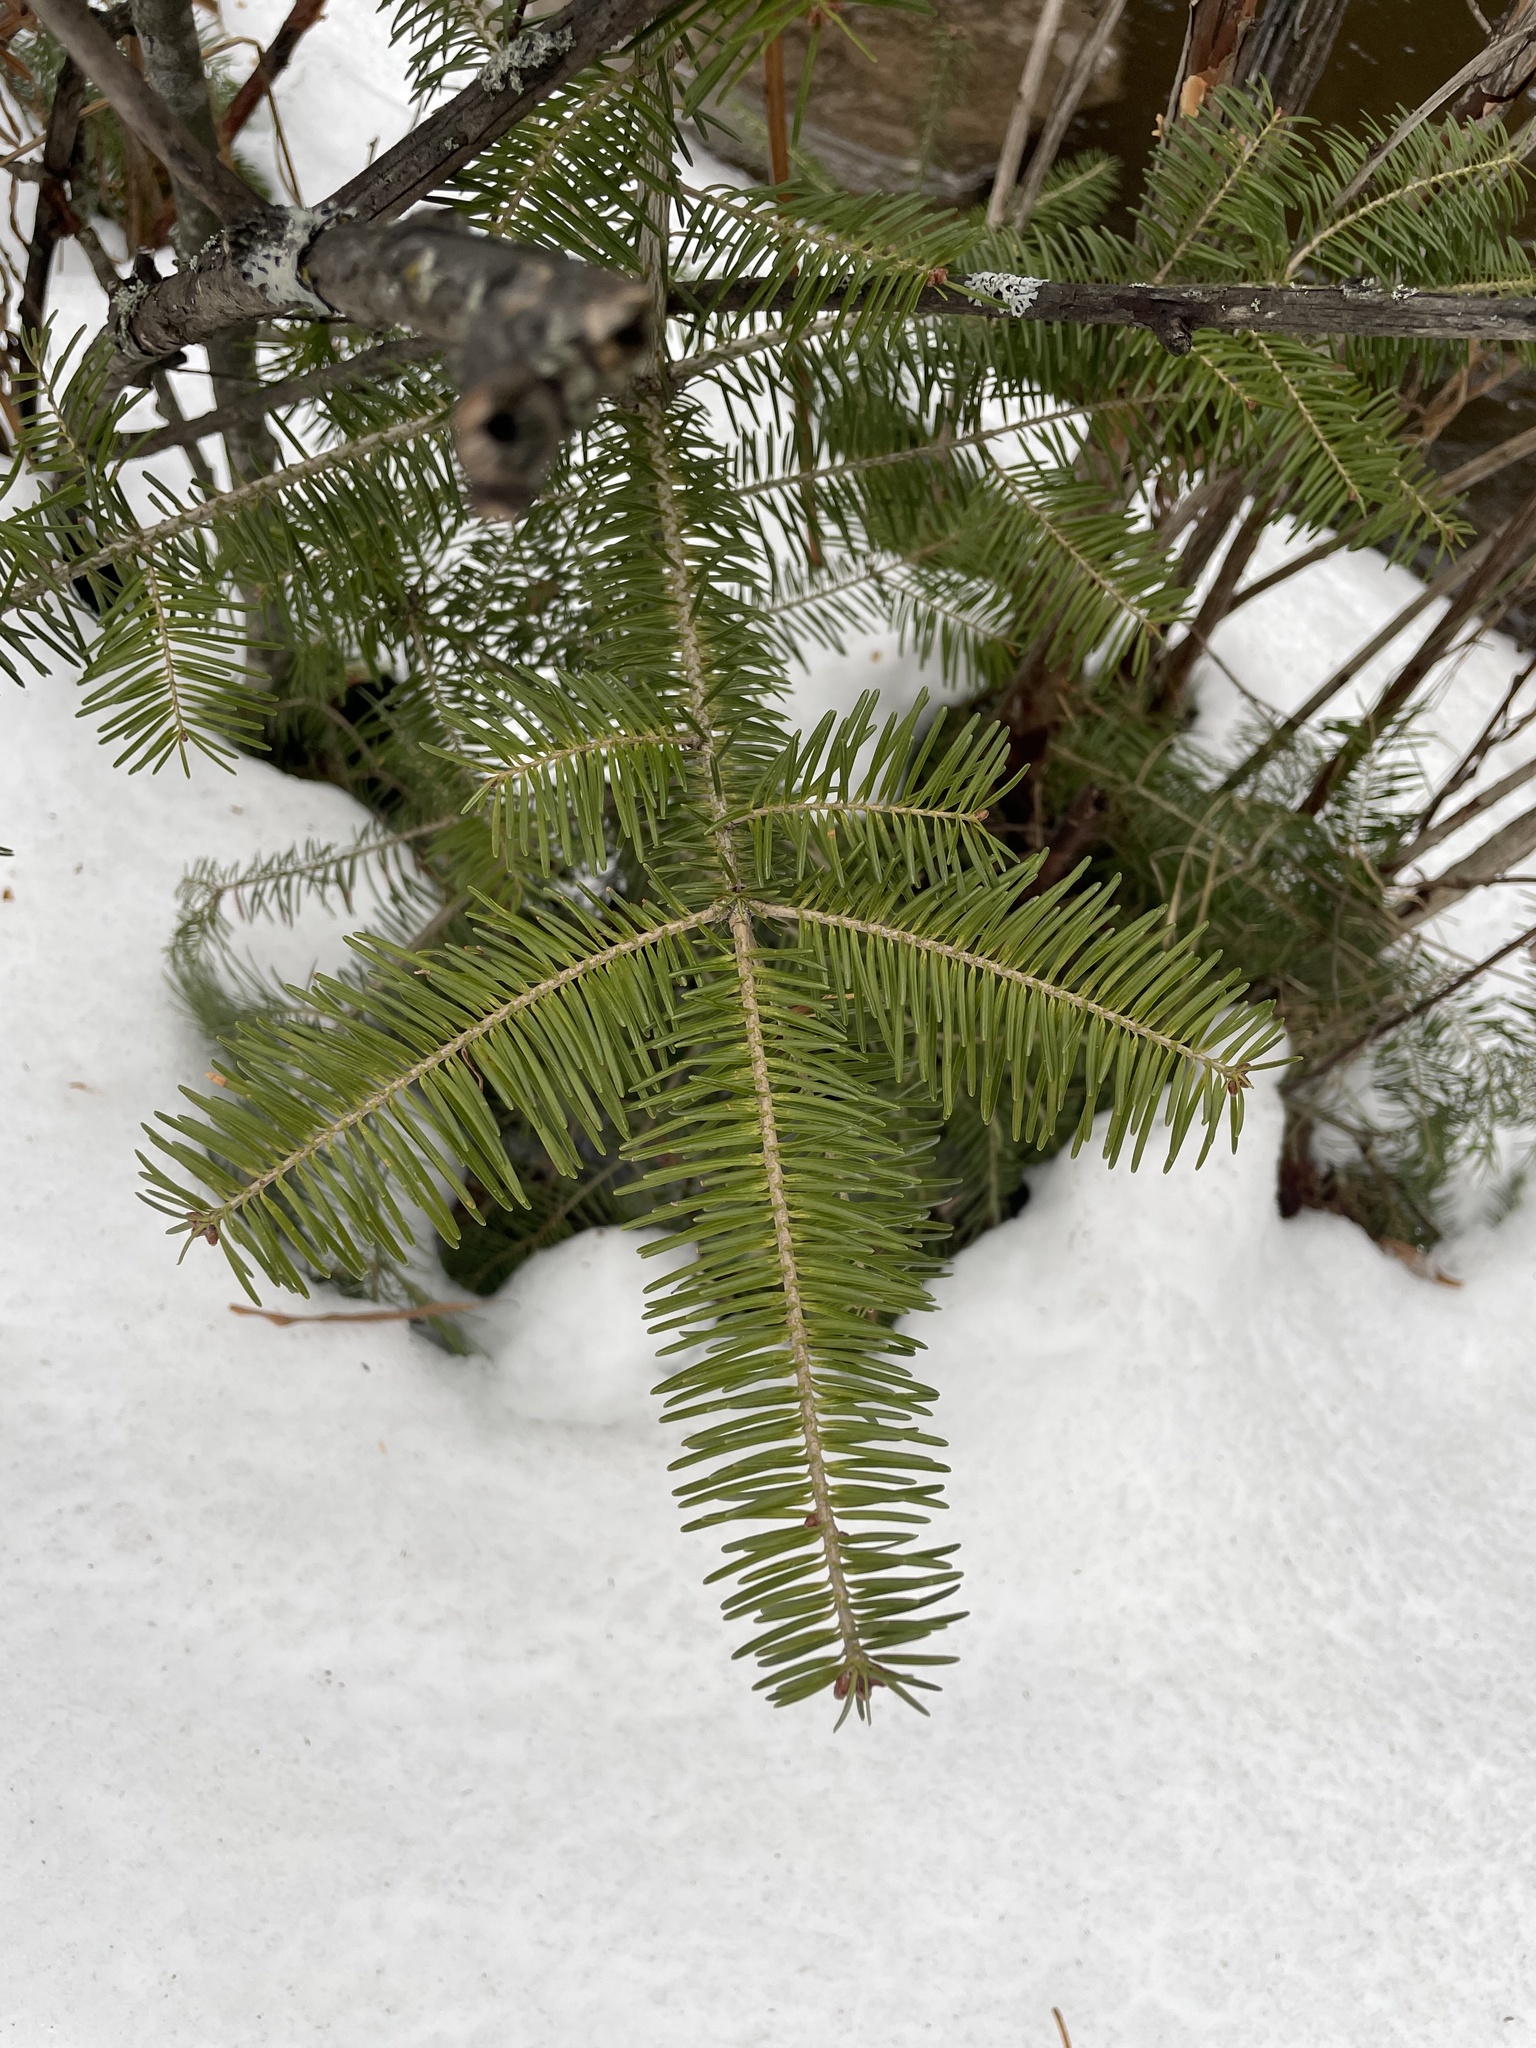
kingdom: Plantae
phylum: Tracheophyta
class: Pinopsida
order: Pinales
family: Pinaceae
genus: Abies
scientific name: Abies balsamea
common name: Balsam fir
